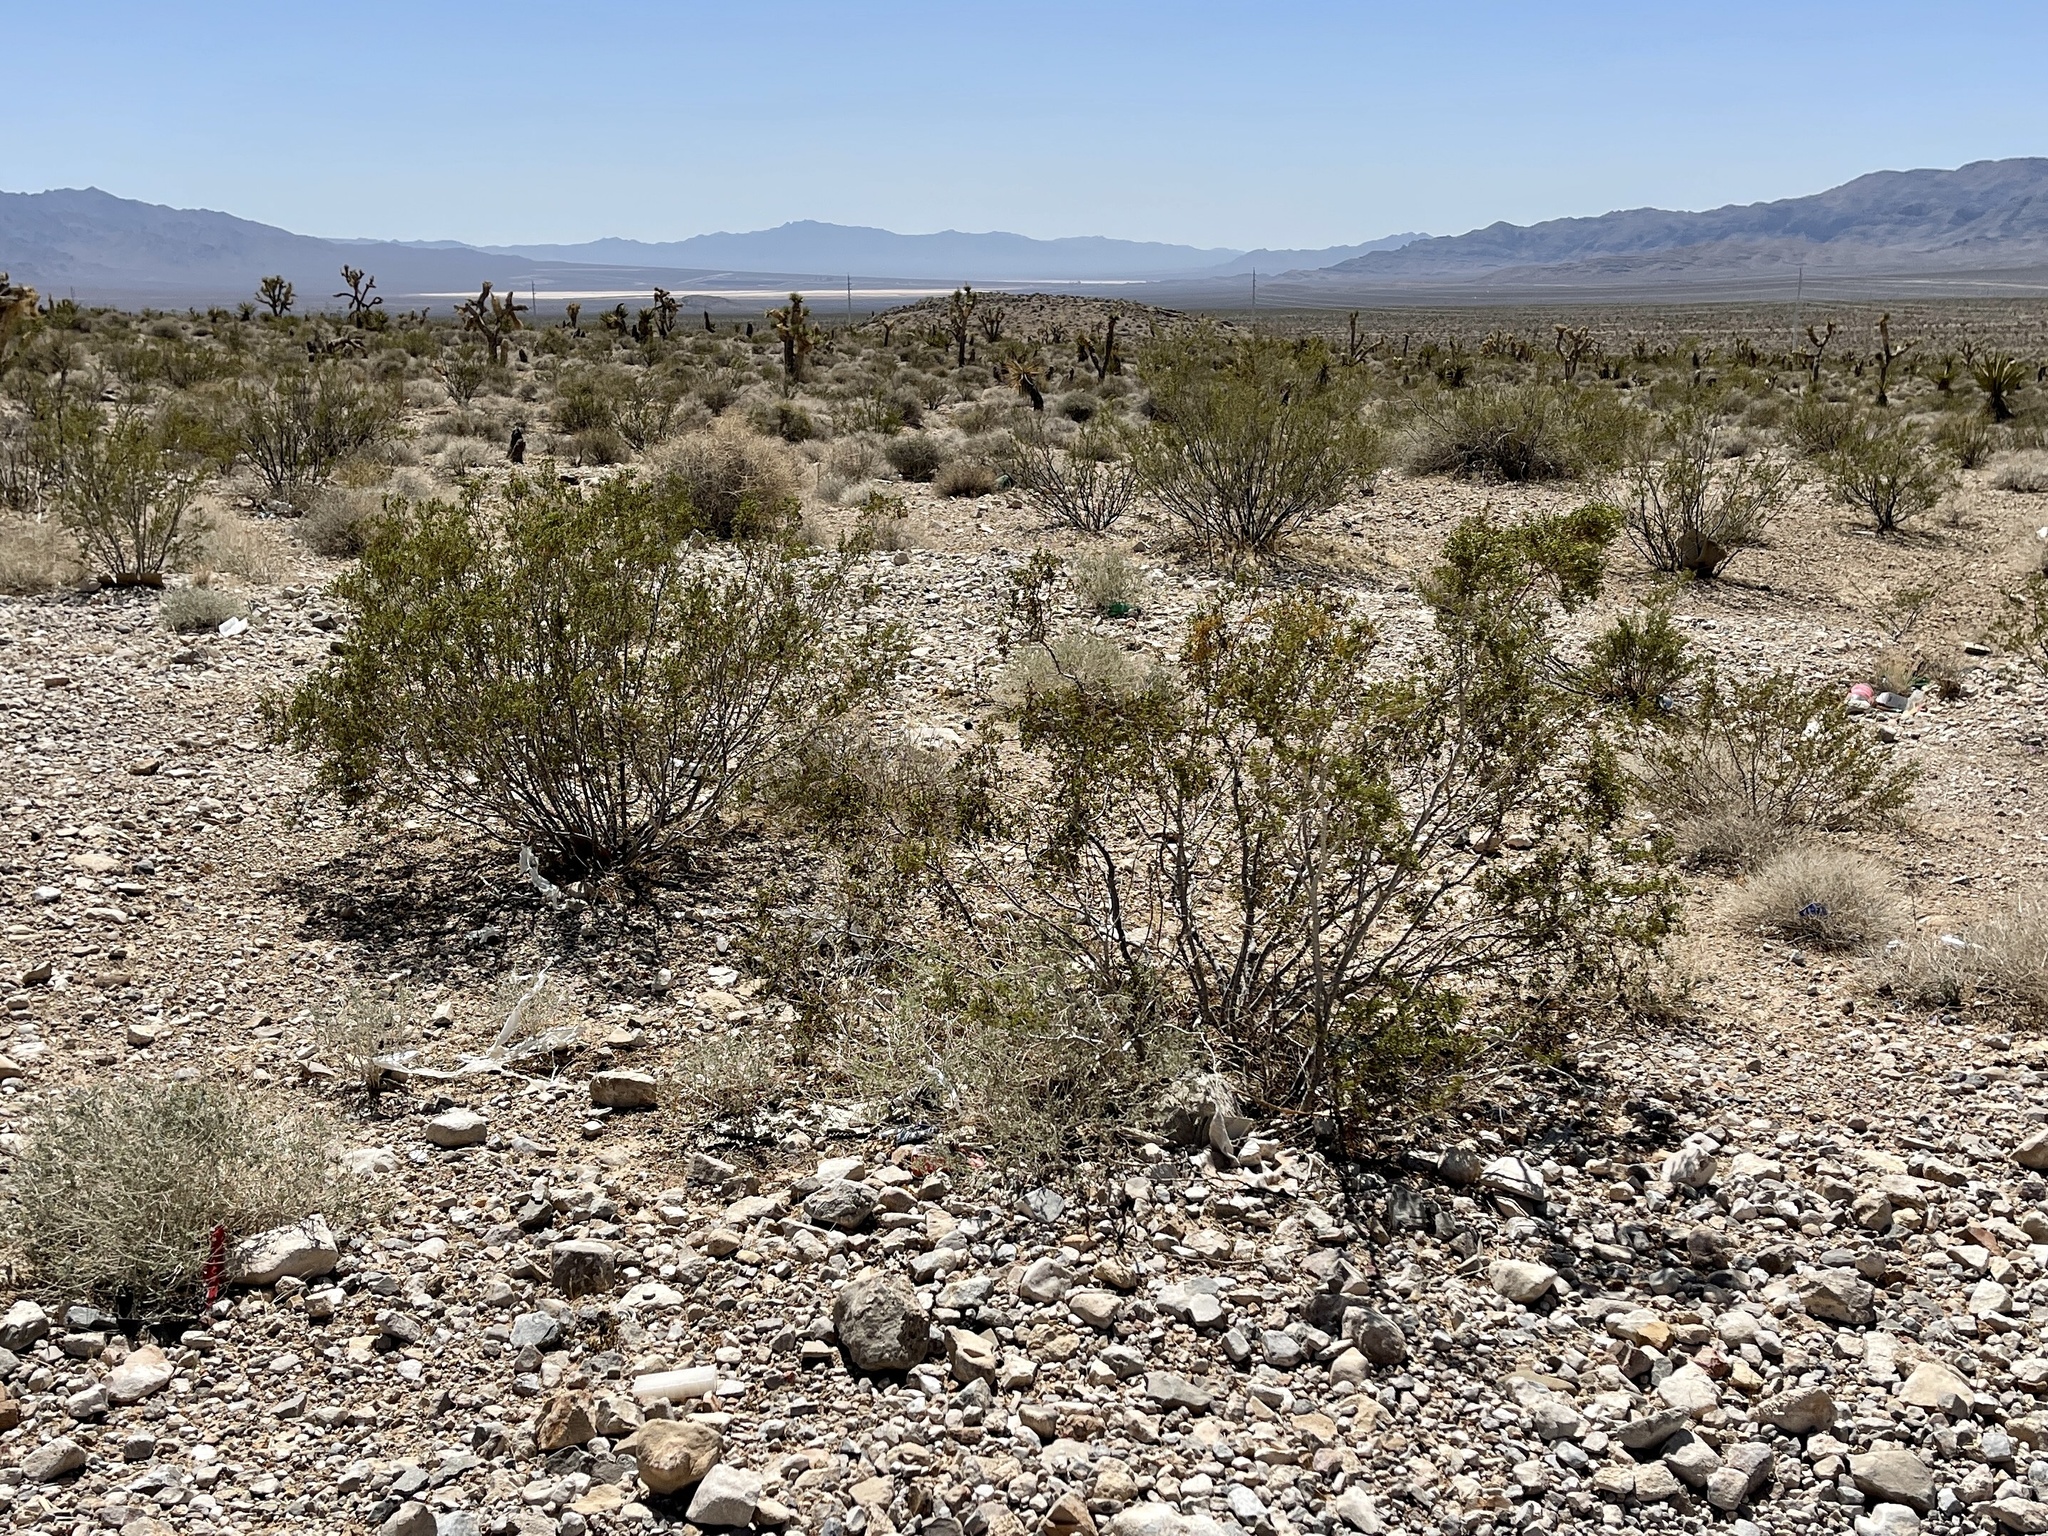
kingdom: Plantae
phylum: Tracheophyta
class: Magnoliopsida
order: Zygophyllales
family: Zygophyllaceae
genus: Larrea
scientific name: Larrea tridentata
